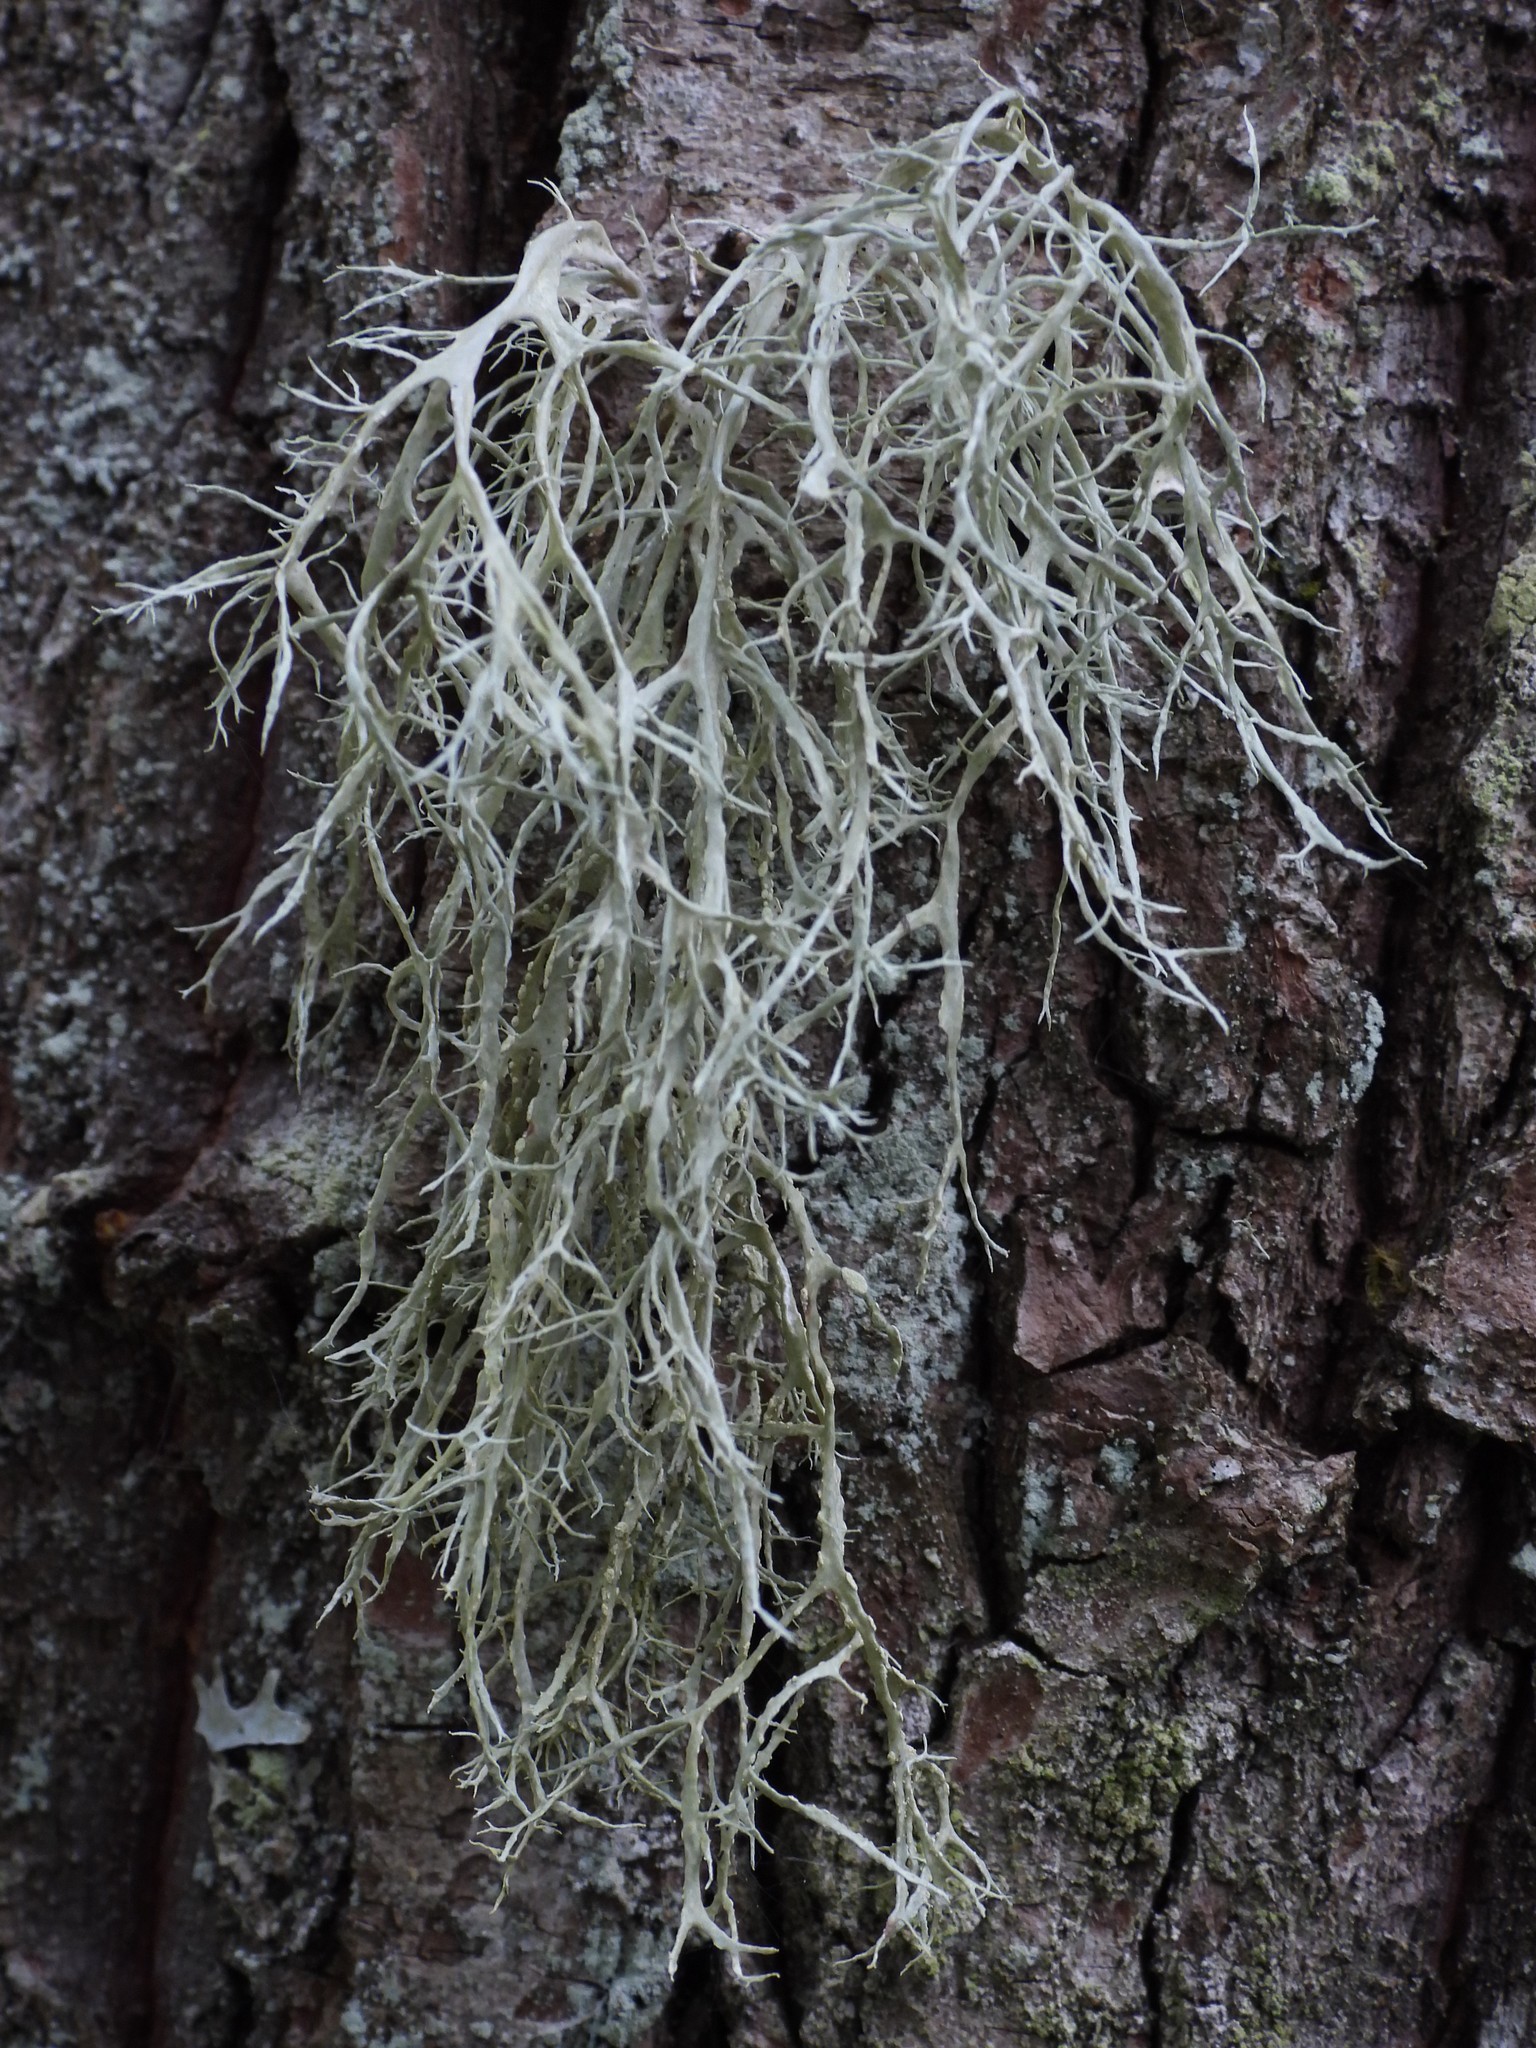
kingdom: Fungi
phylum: Ascomycota
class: Lecanoromycetes
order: Lecanorales
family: Ramalinaceae
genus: Ramalina
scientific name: Ramalina farinacea
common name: Farinose cartilage lichen
